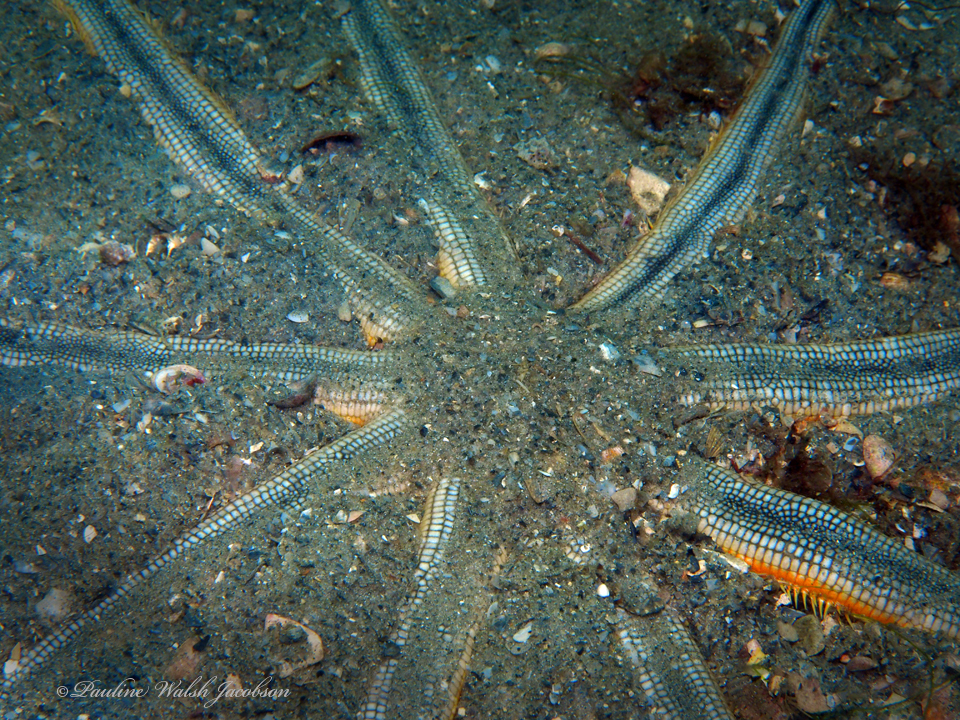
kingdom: Animalia
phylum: Echinodermata
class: Asteroidea
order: Paxillosida
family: Luidiidae
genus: Luidia
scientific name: Luidia senegalensis
